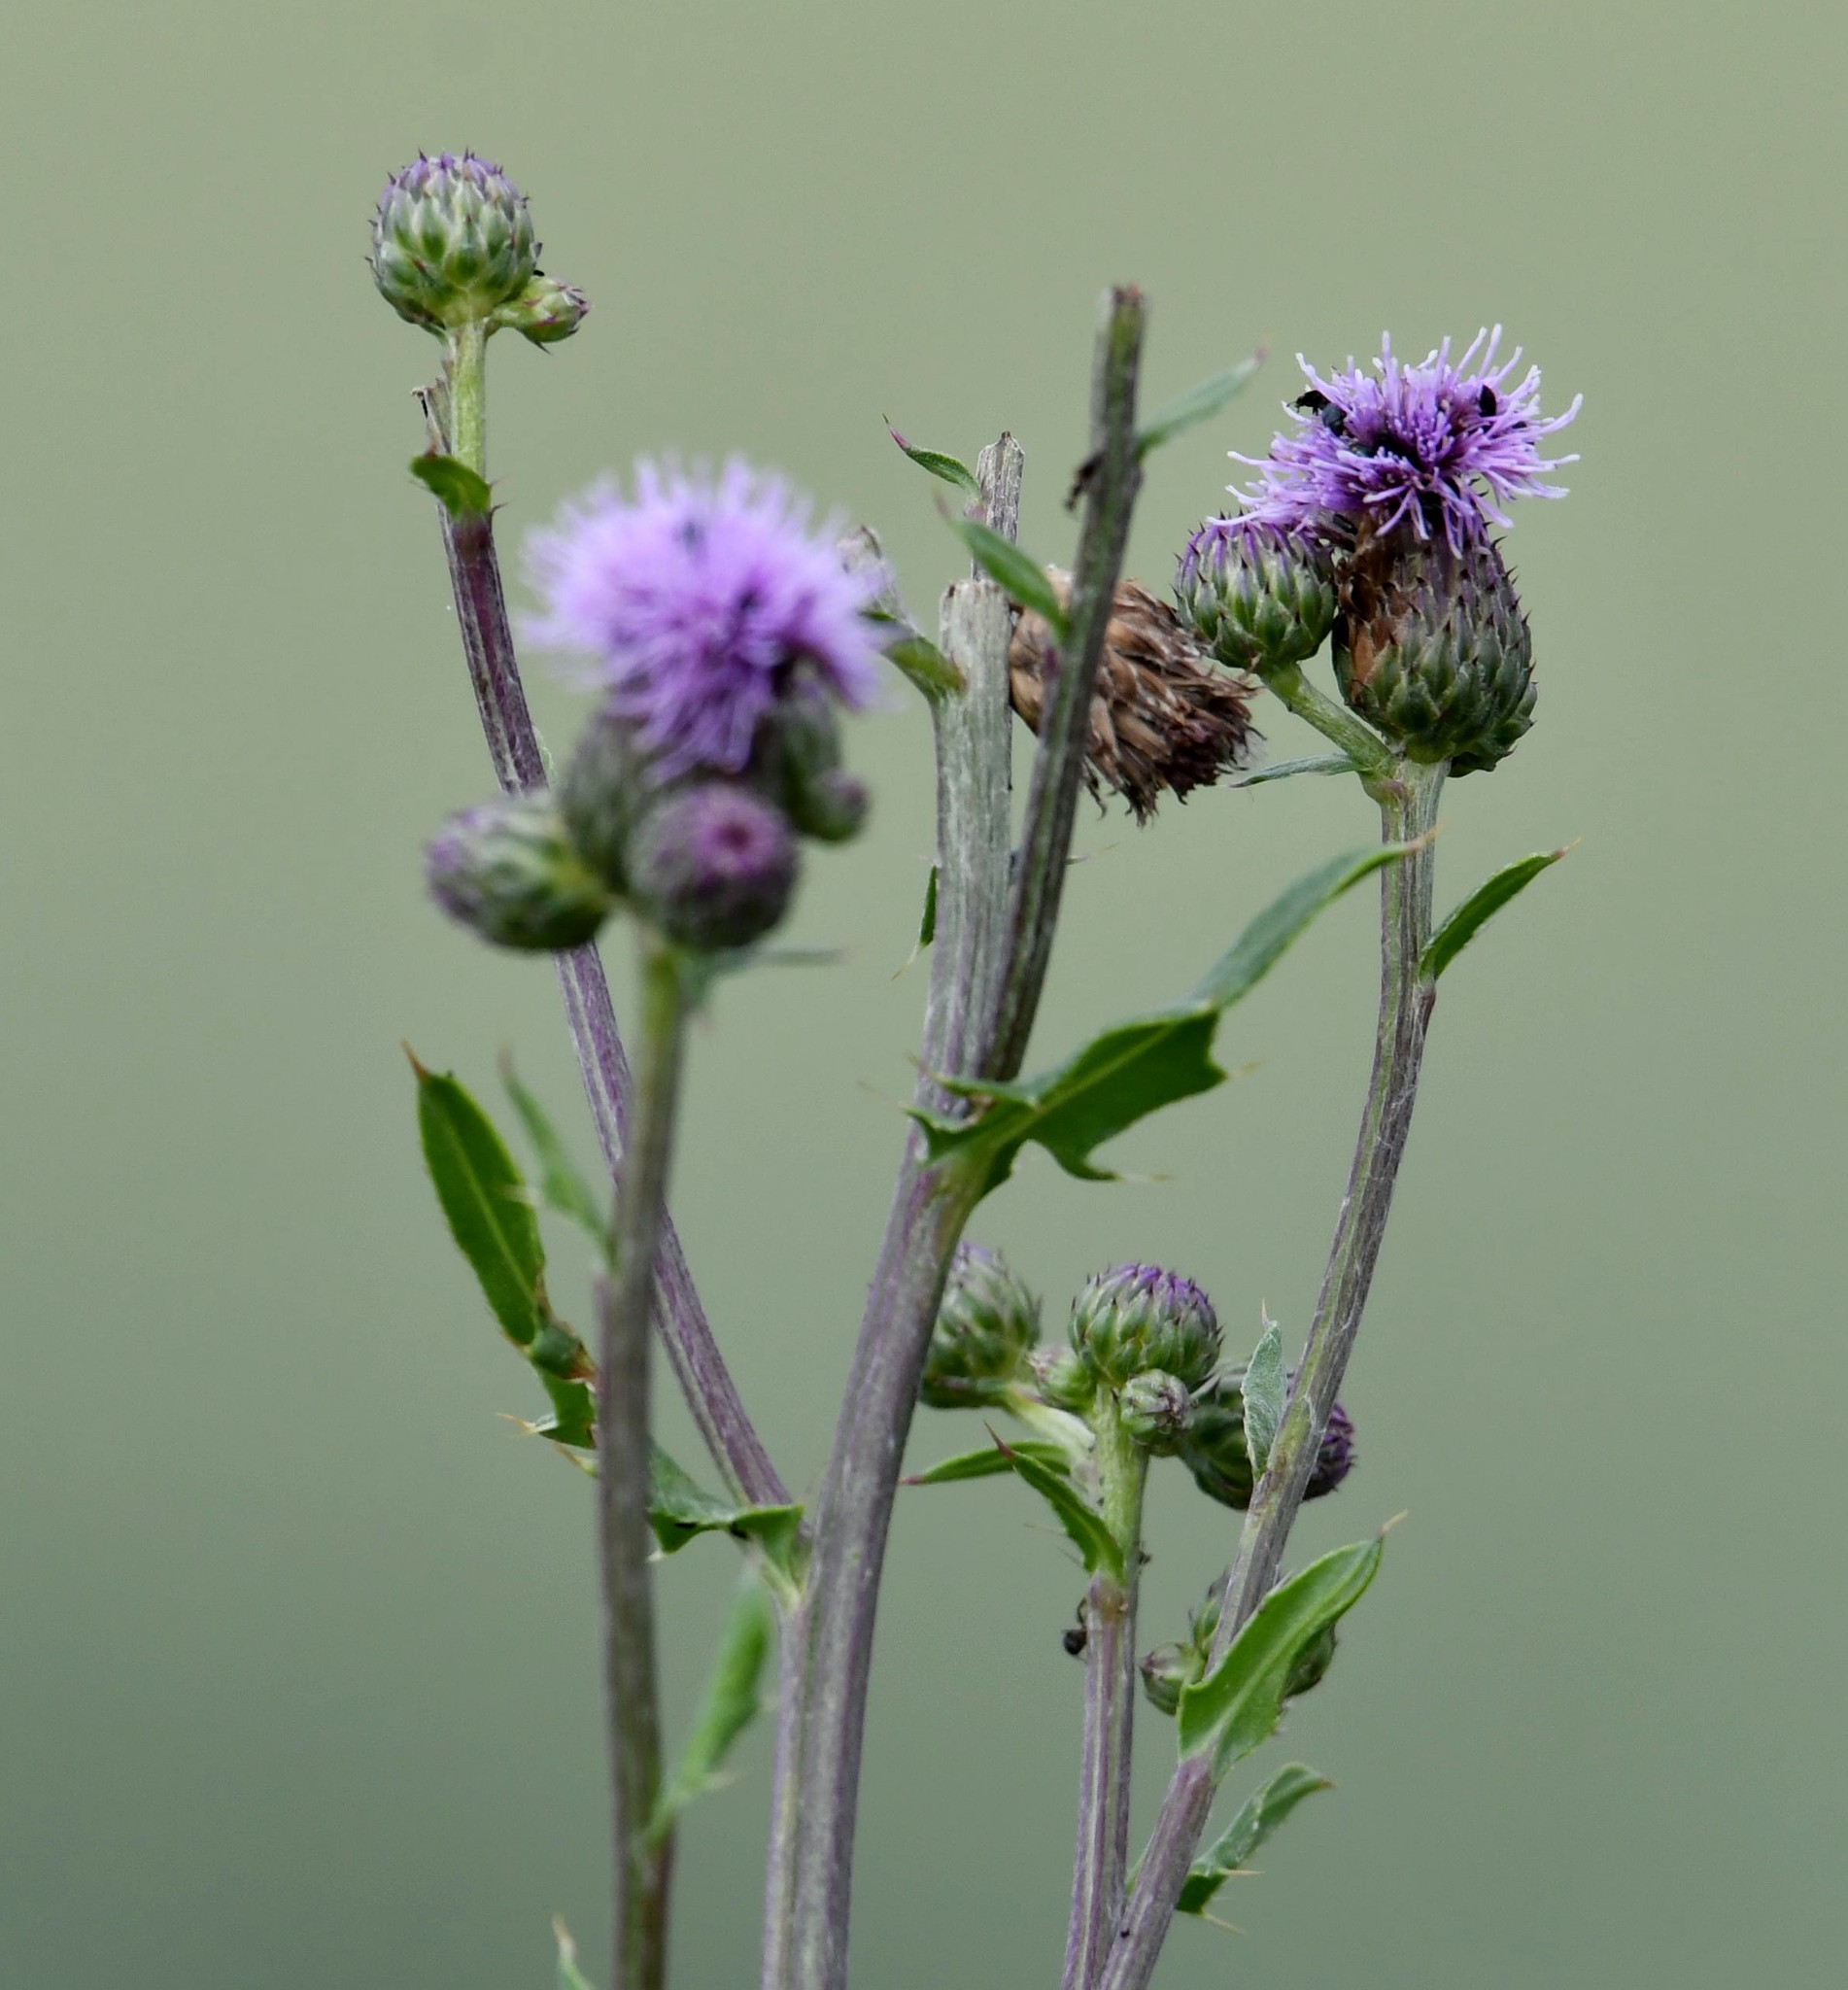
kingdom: Plantae
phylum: Tracheophyta
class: Magnoliopsida
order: Asterales
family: Asteraceae
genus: Cirsium
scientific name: Cirsium arvense
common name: Creeping thistle
